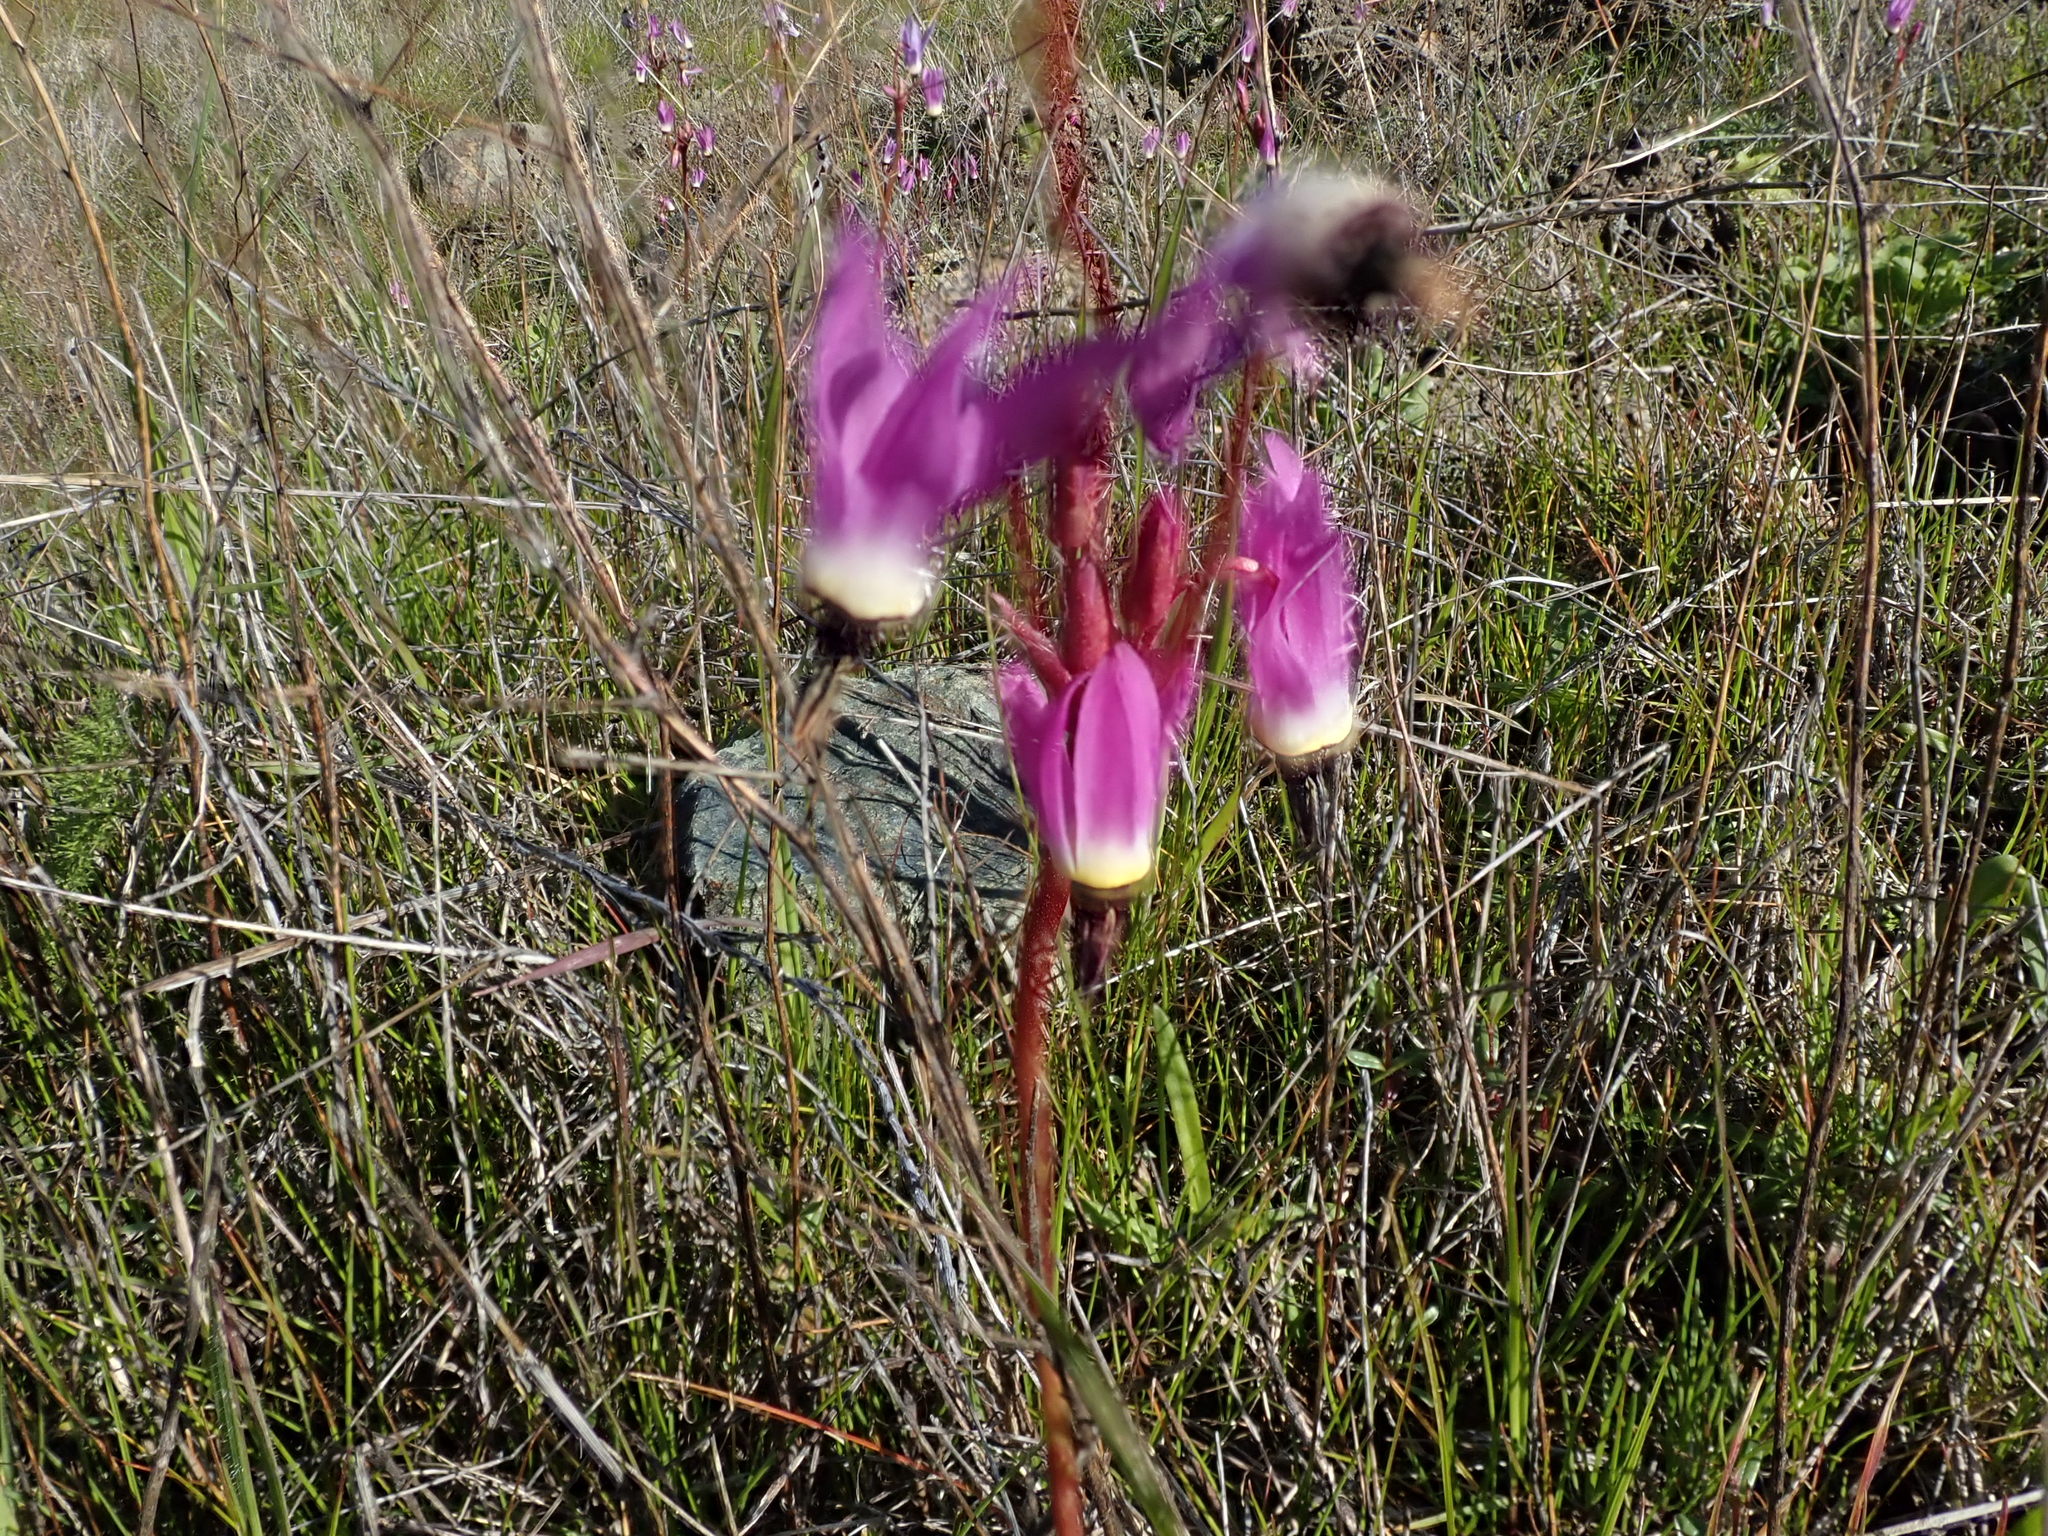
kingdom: Plantae
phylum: Tracheophyta
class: Magnoliopsida
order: Ericales
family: Primulaceae
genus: Dodecatheon
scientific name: Dodecatheon hendersonii
